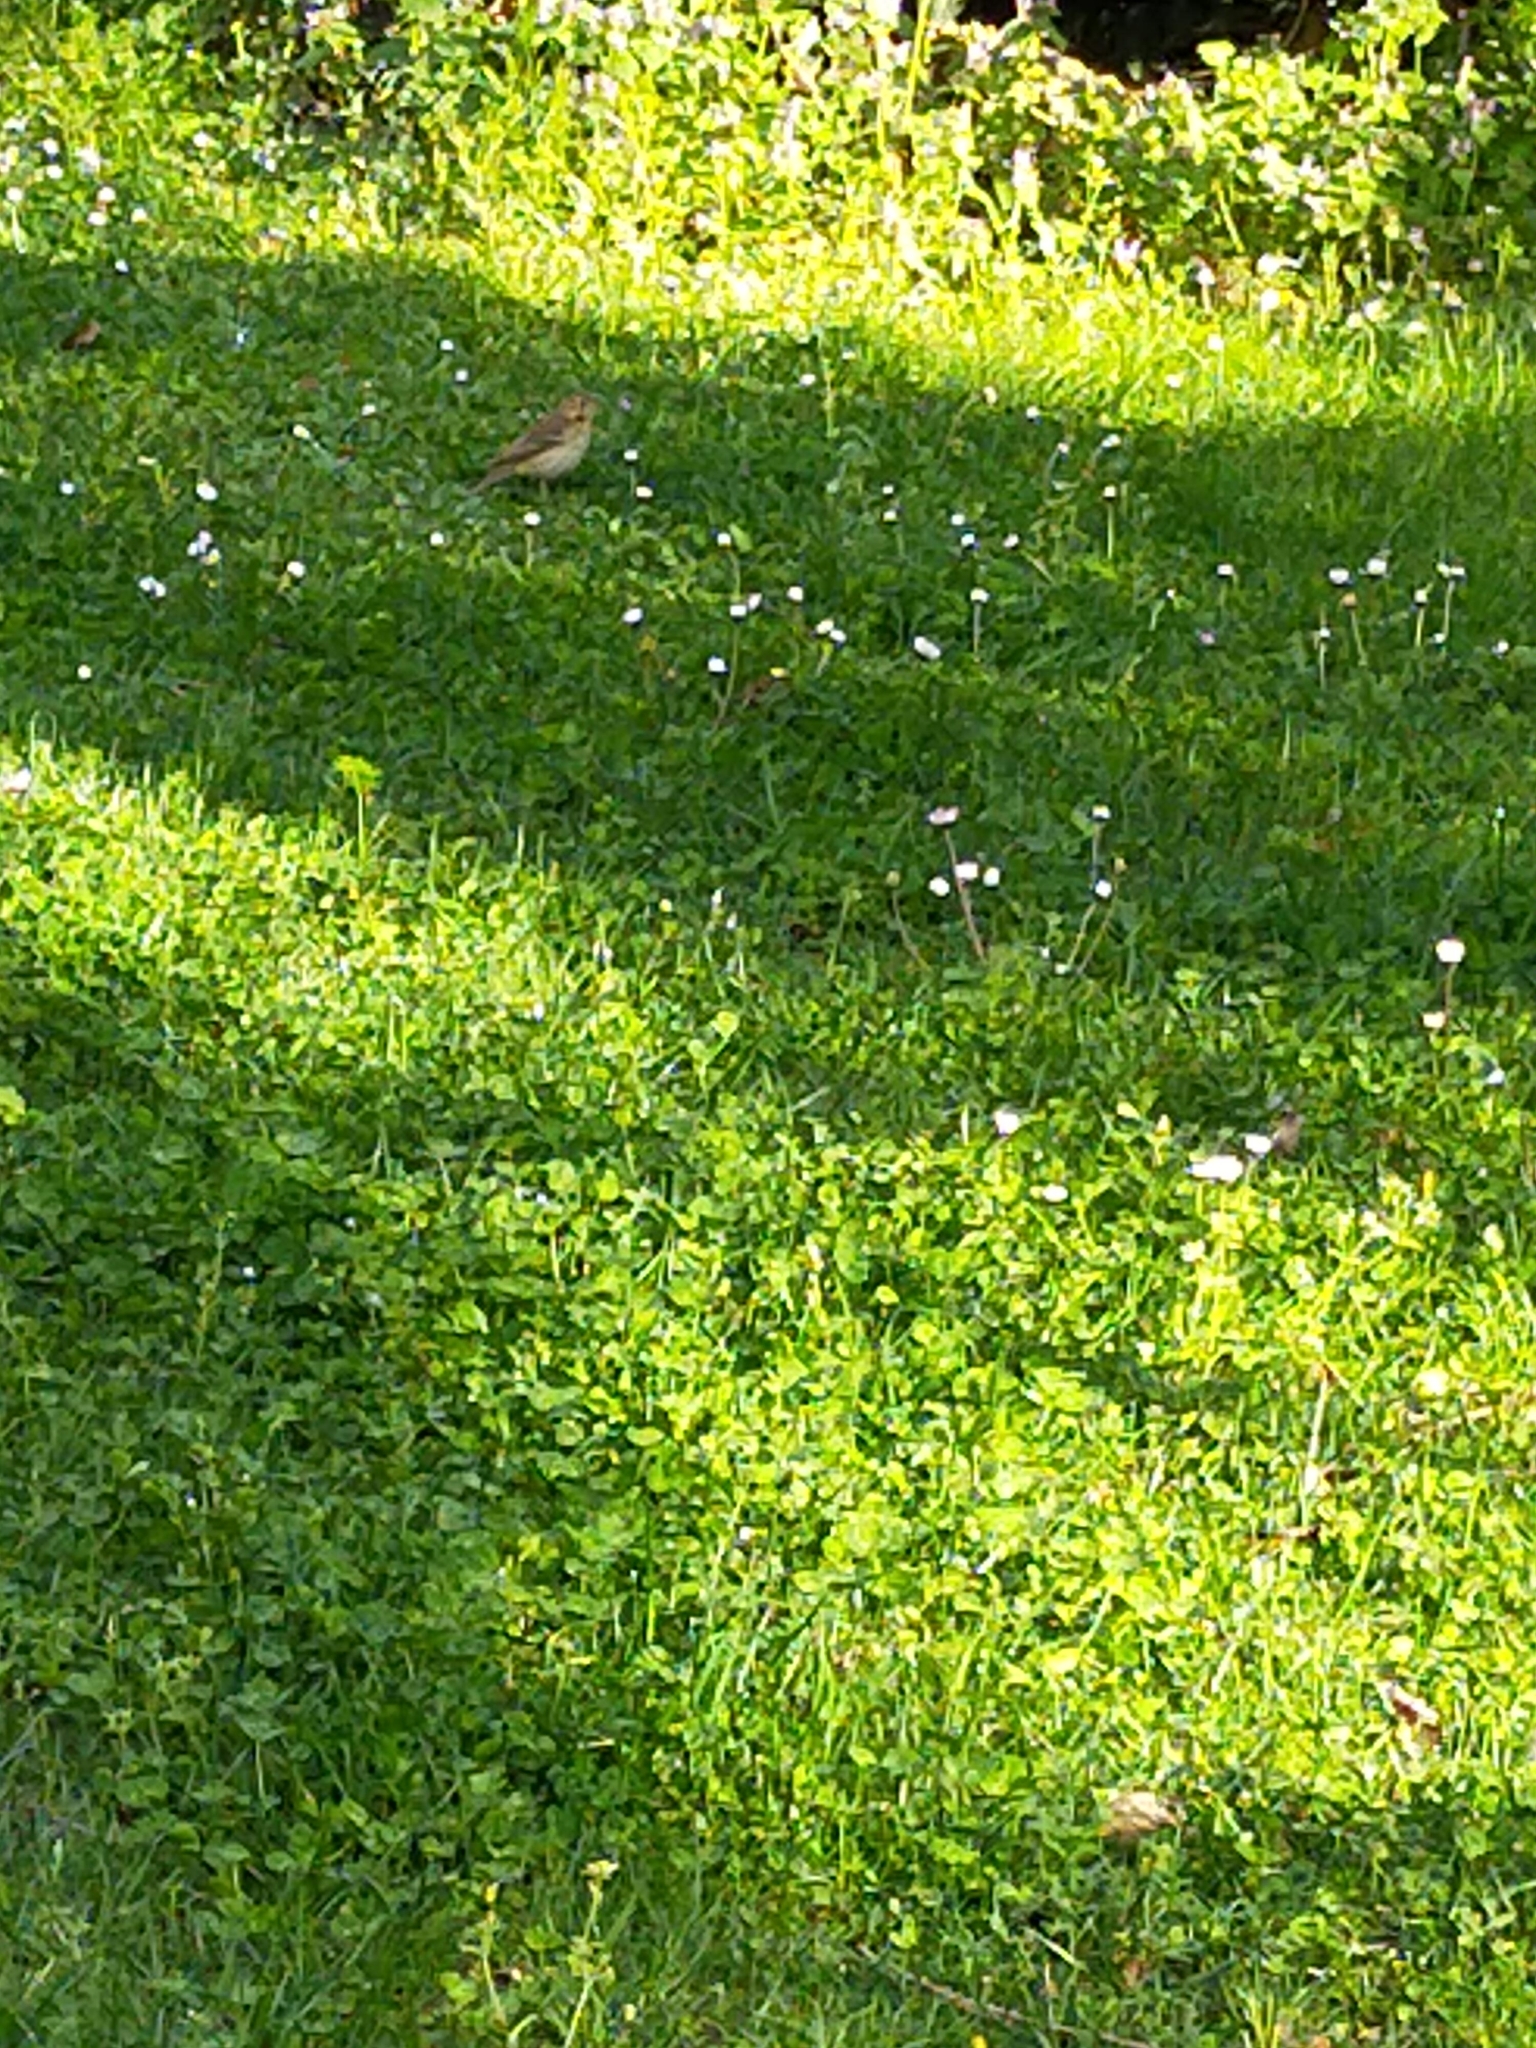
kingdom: Animalia
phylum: Chordata
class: Aves
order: Passeriformes
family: Turdidae
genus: Turdus
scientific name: Turdus philomelos
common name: Song thrush
